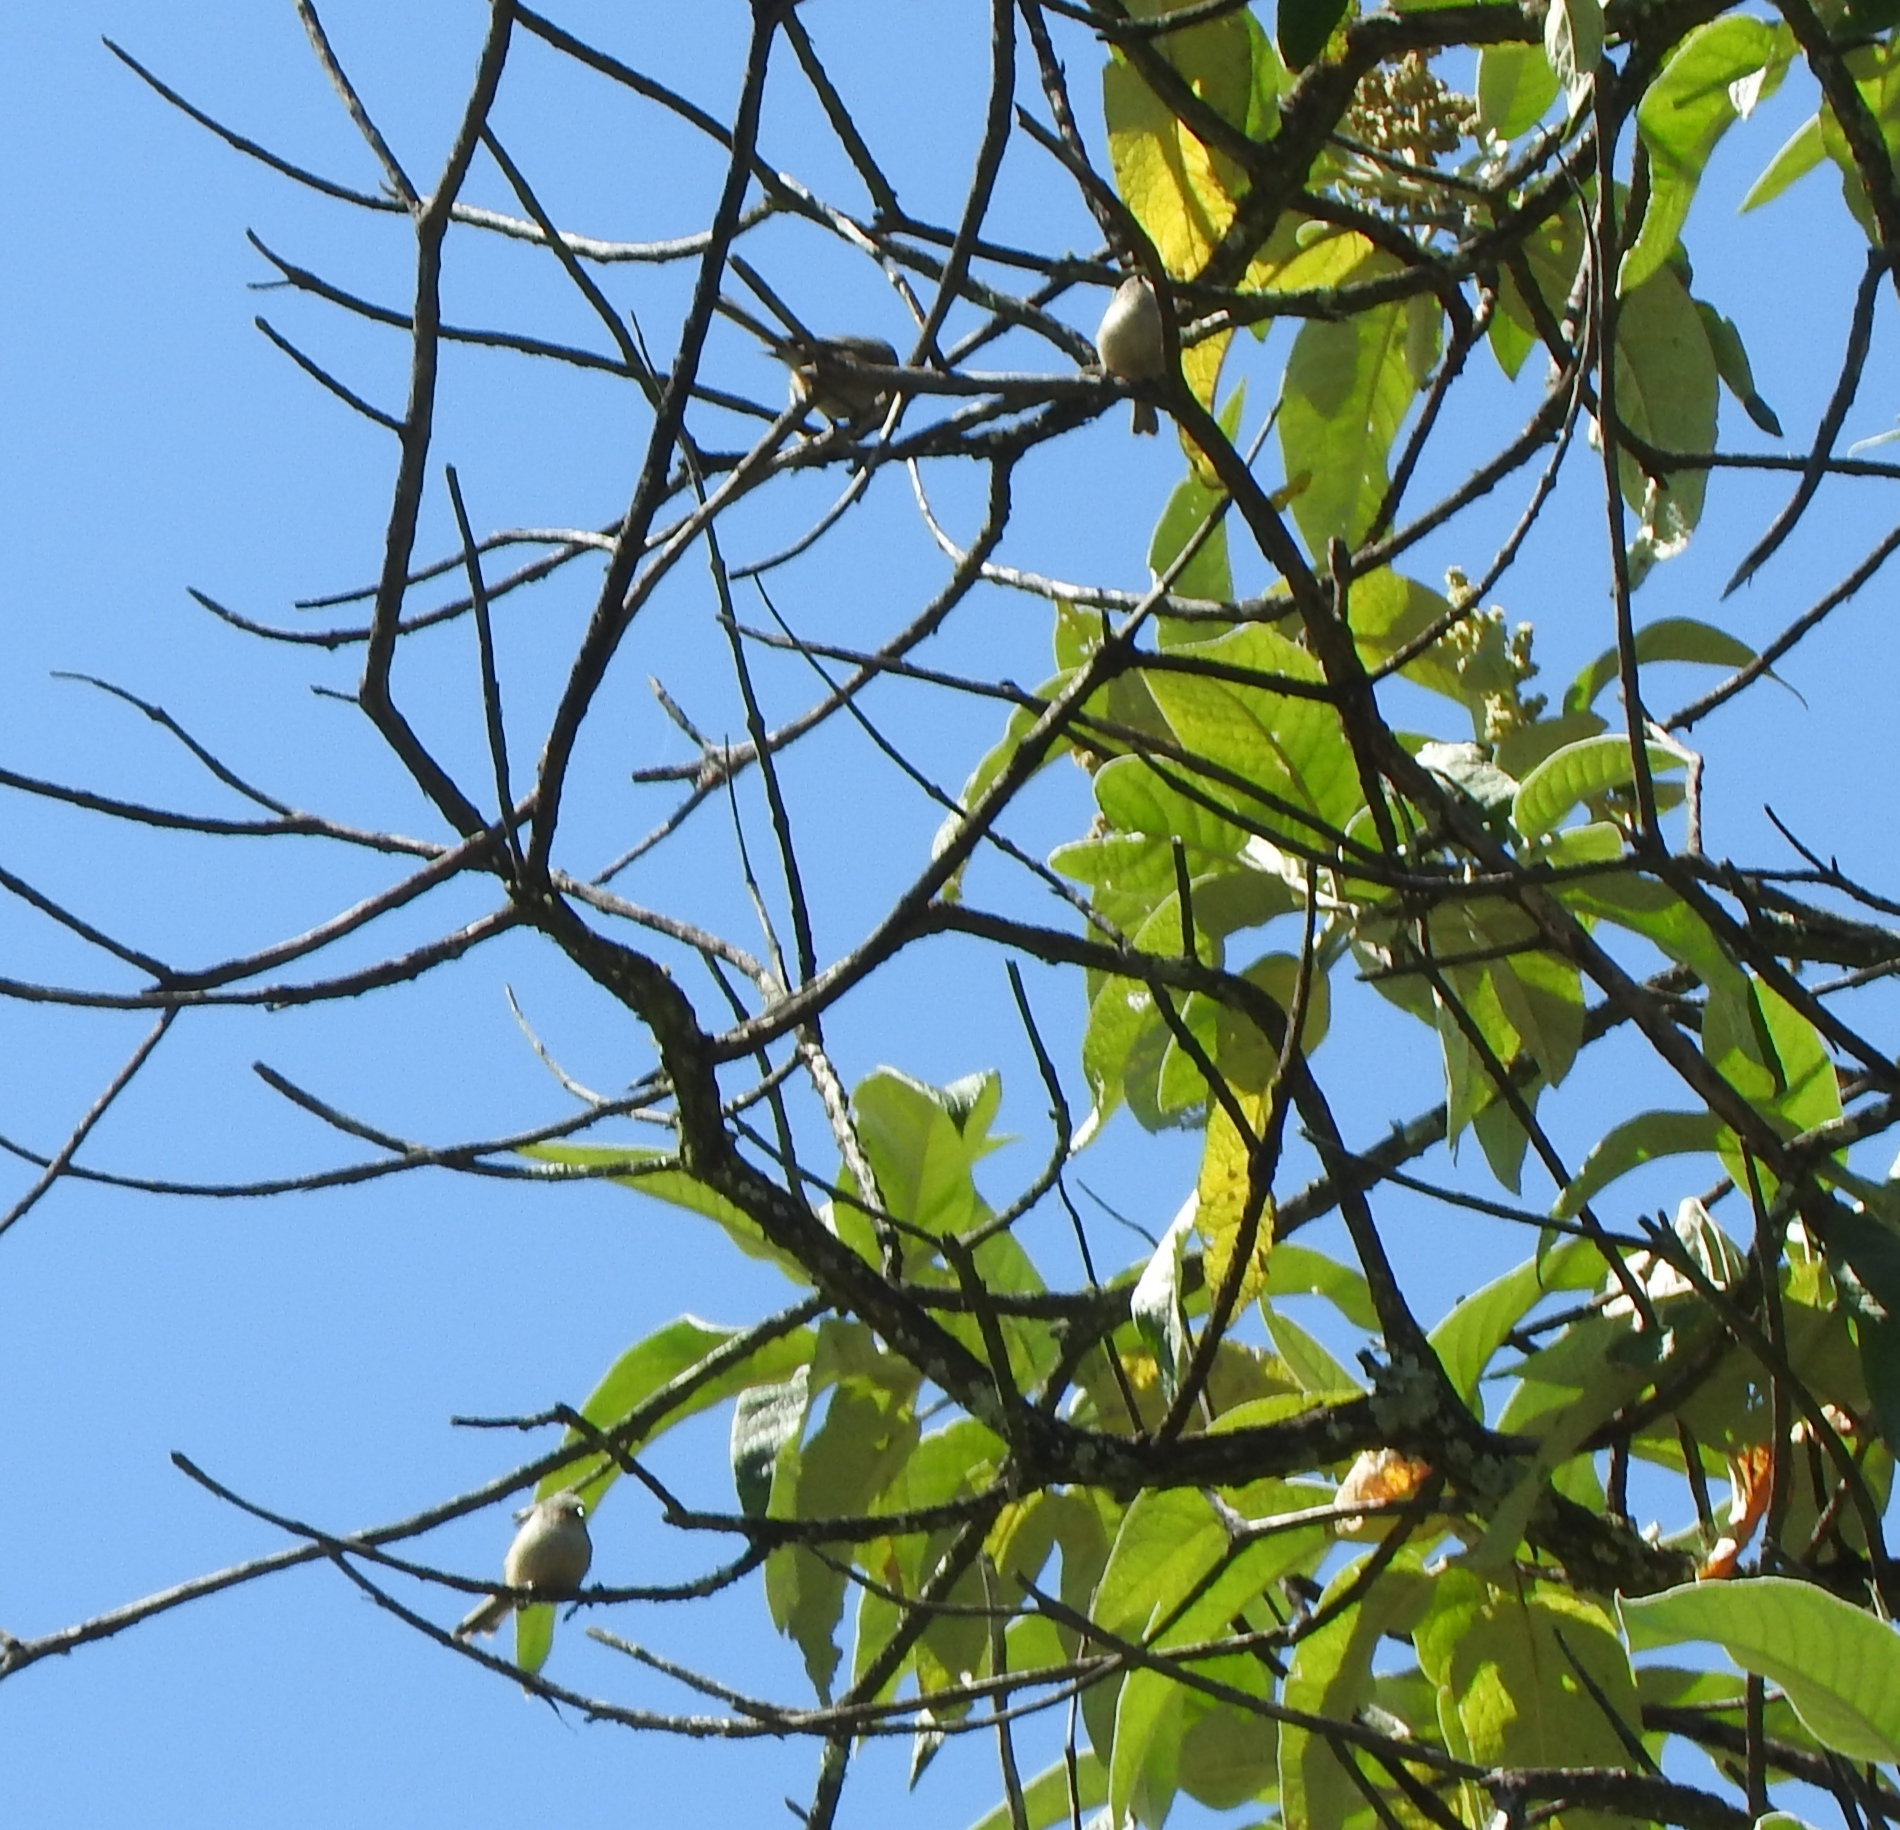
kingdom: Animalia
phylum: Chordata
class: Aves
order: Passeriformes
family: Aegithalidae
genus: Psaltriparus
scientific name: Psaltriparus minimus
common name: American bushtit
